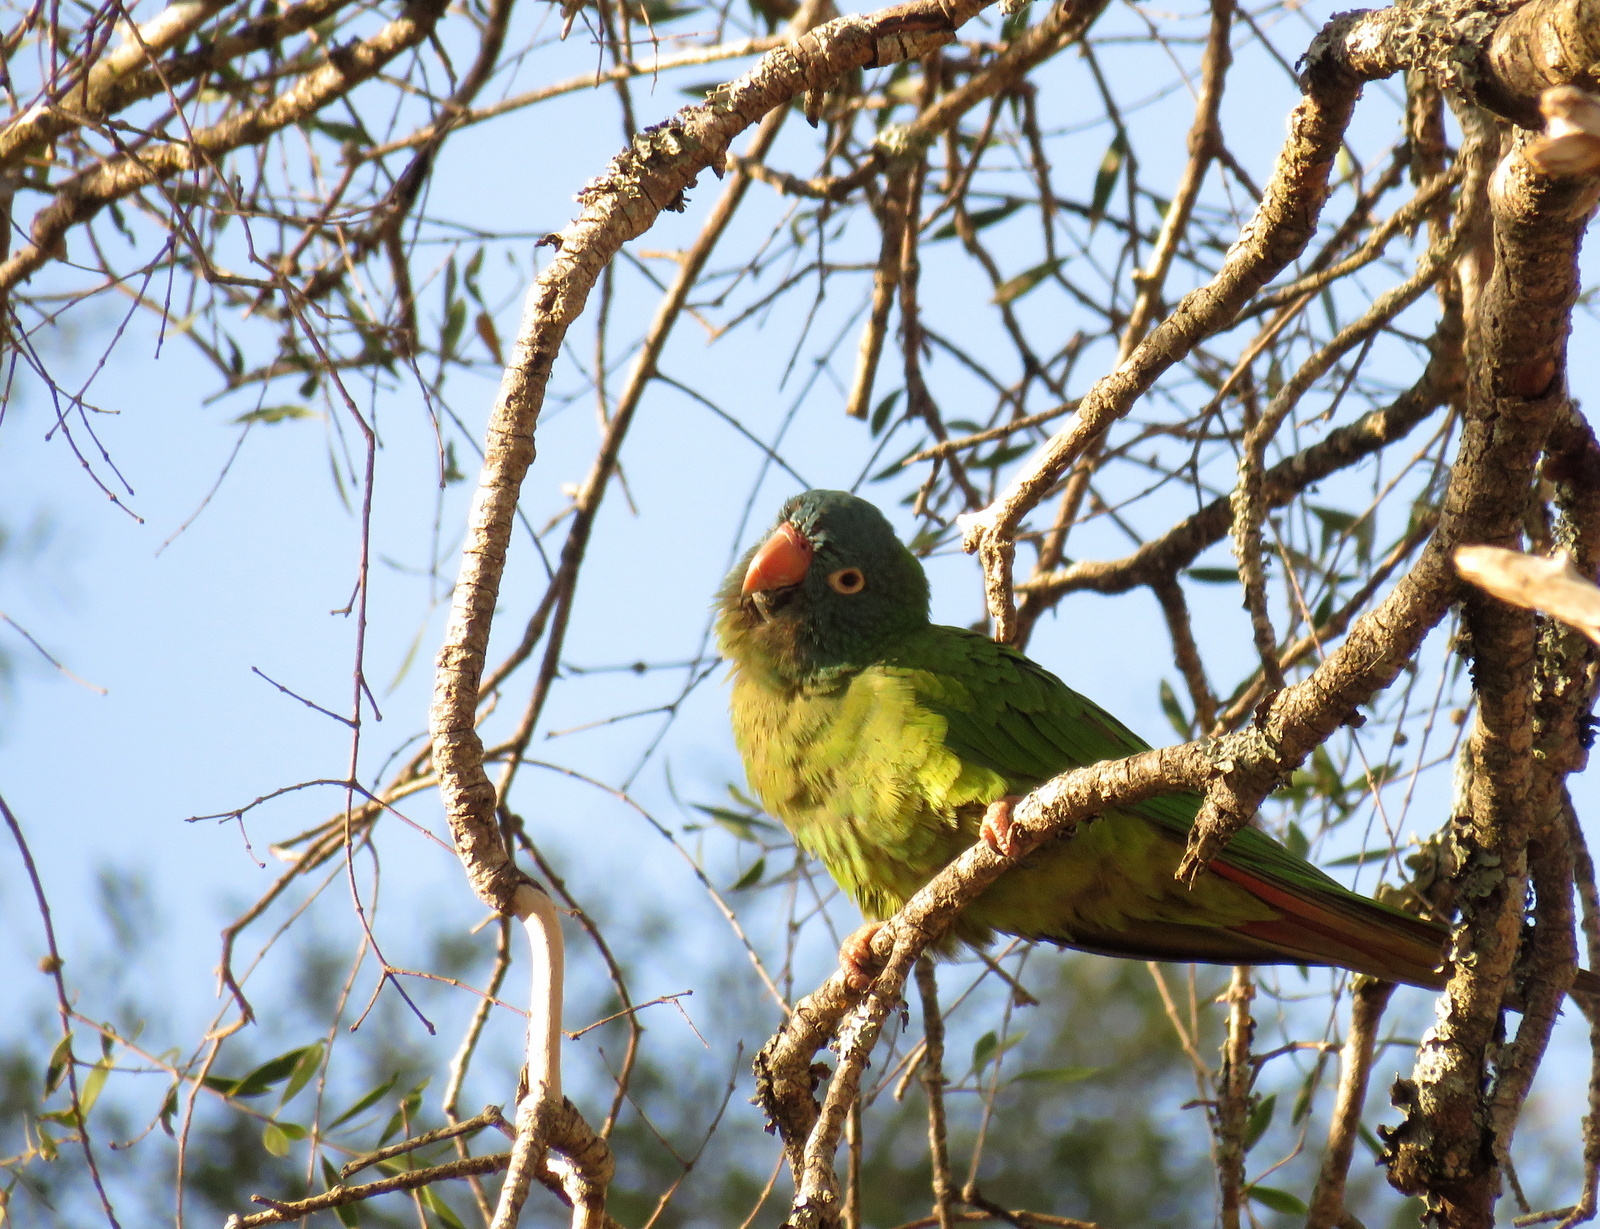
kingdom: Animalia
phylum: Chordata
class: Aves
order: Psittaciformes
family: Psittacidae
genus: Aratinga
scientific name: Aratinga acuticaudata
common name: Blue-crowned parakeet
